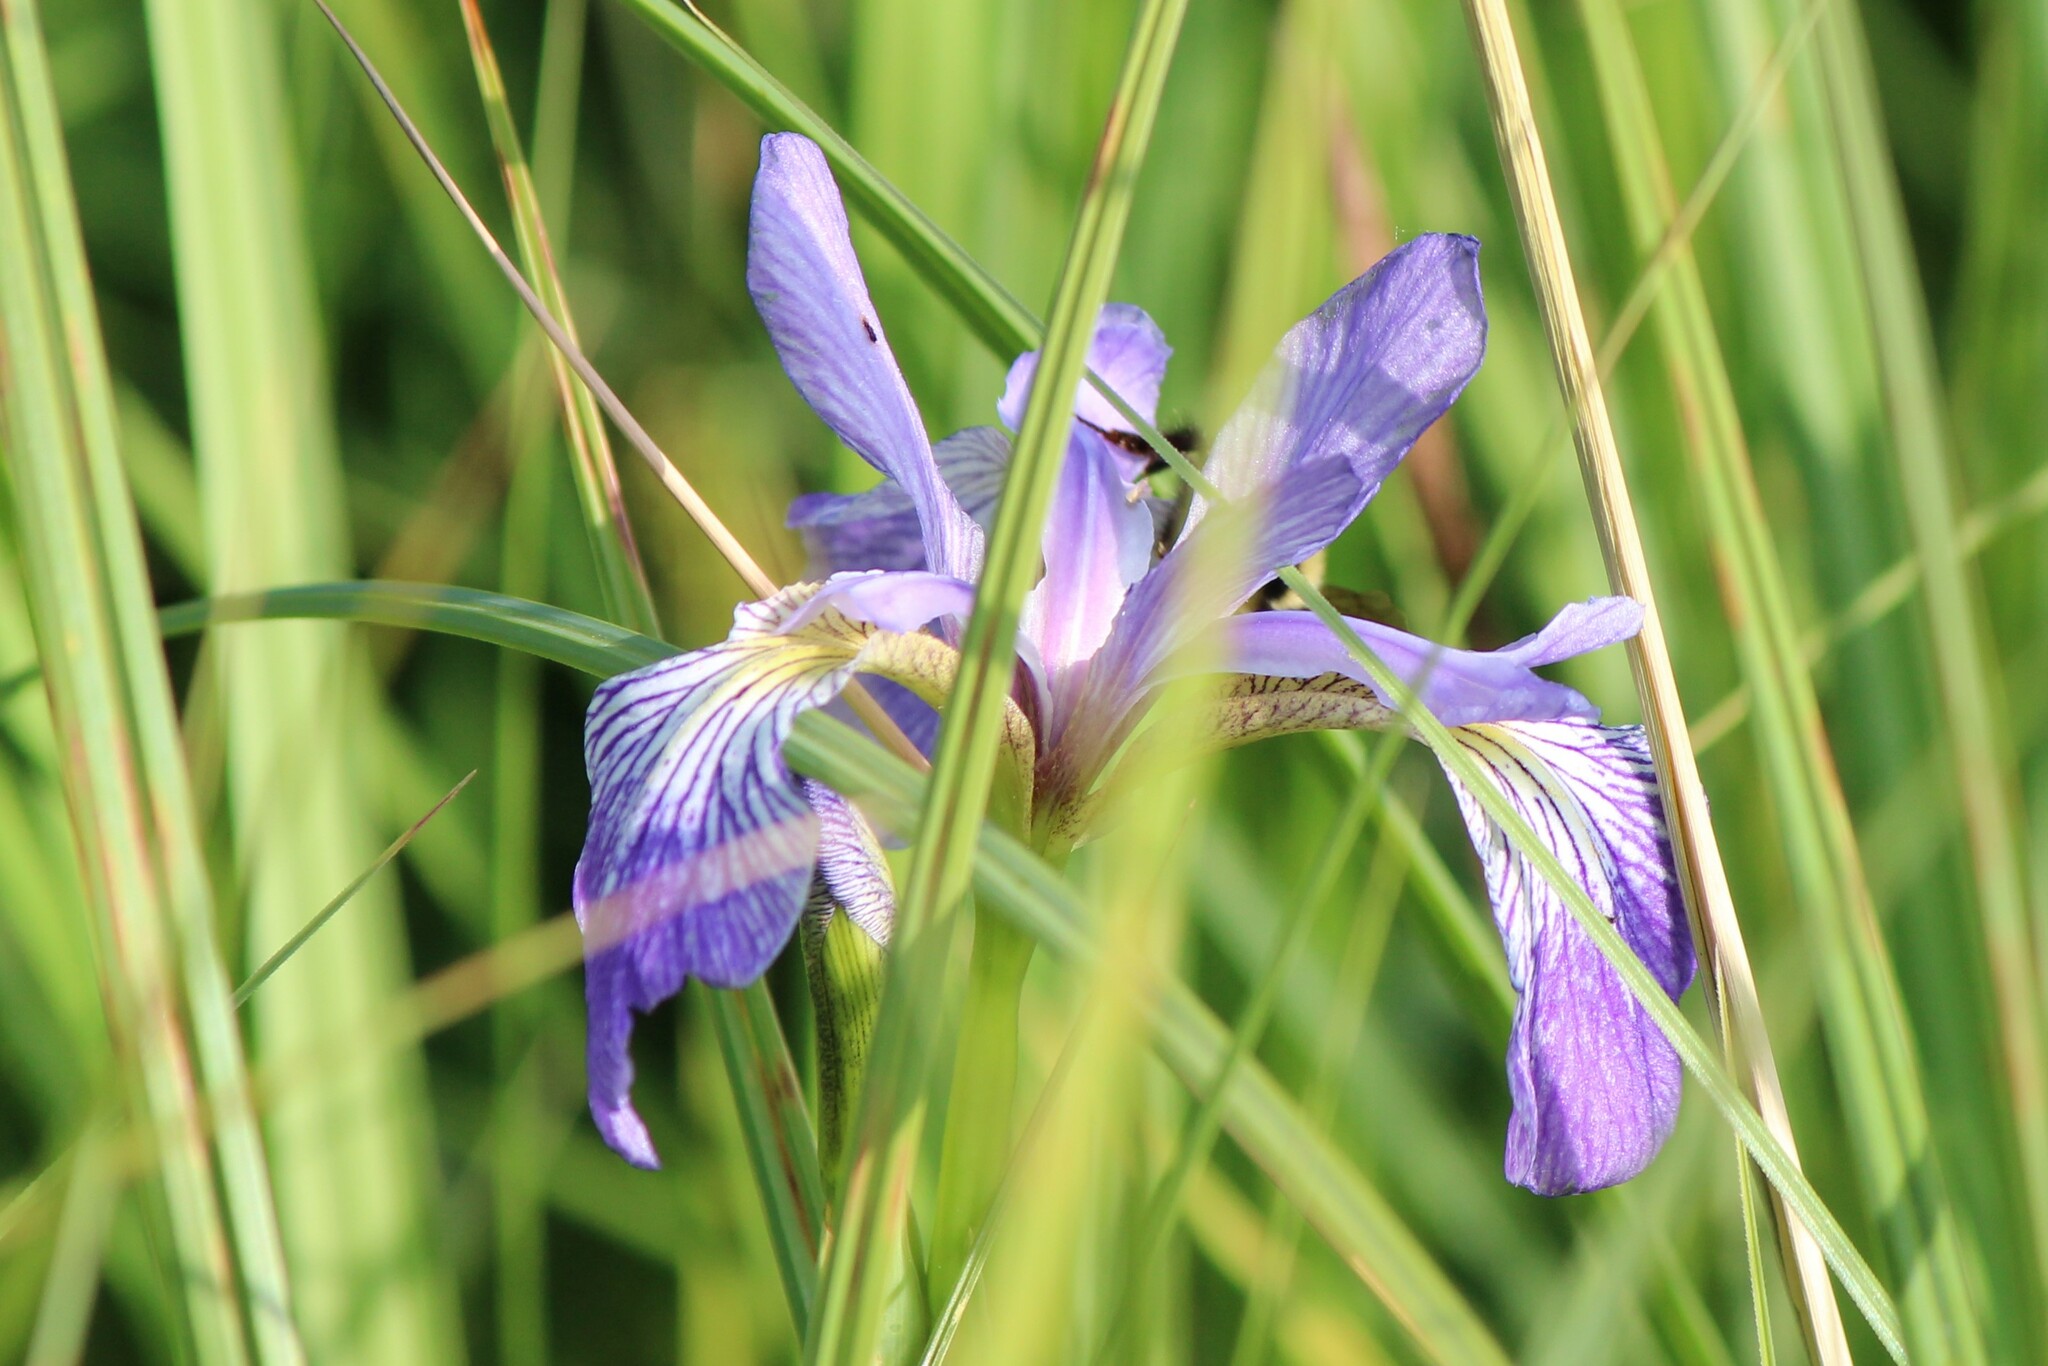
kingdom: Plantae
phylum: Tracheophyta
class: Liliopsida
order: Asparagales
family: Iridaceae
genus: Iris
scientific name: Iris versicolor
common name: Purple iris
